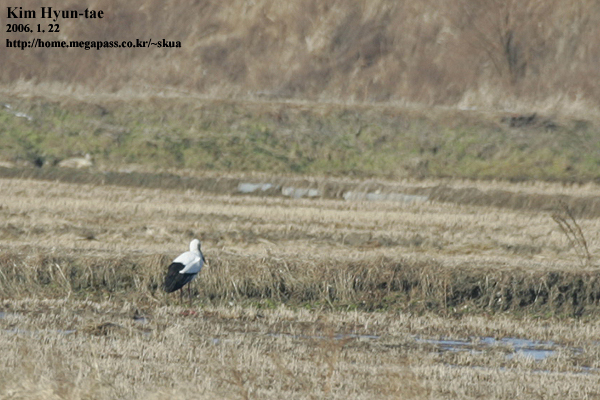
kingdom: Animalia
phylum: Chordata
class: Aves
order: Ciconiiformes
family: Ciconiidae
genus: Ciconia
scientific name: Ciconia boyciana
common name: Oriental stork
